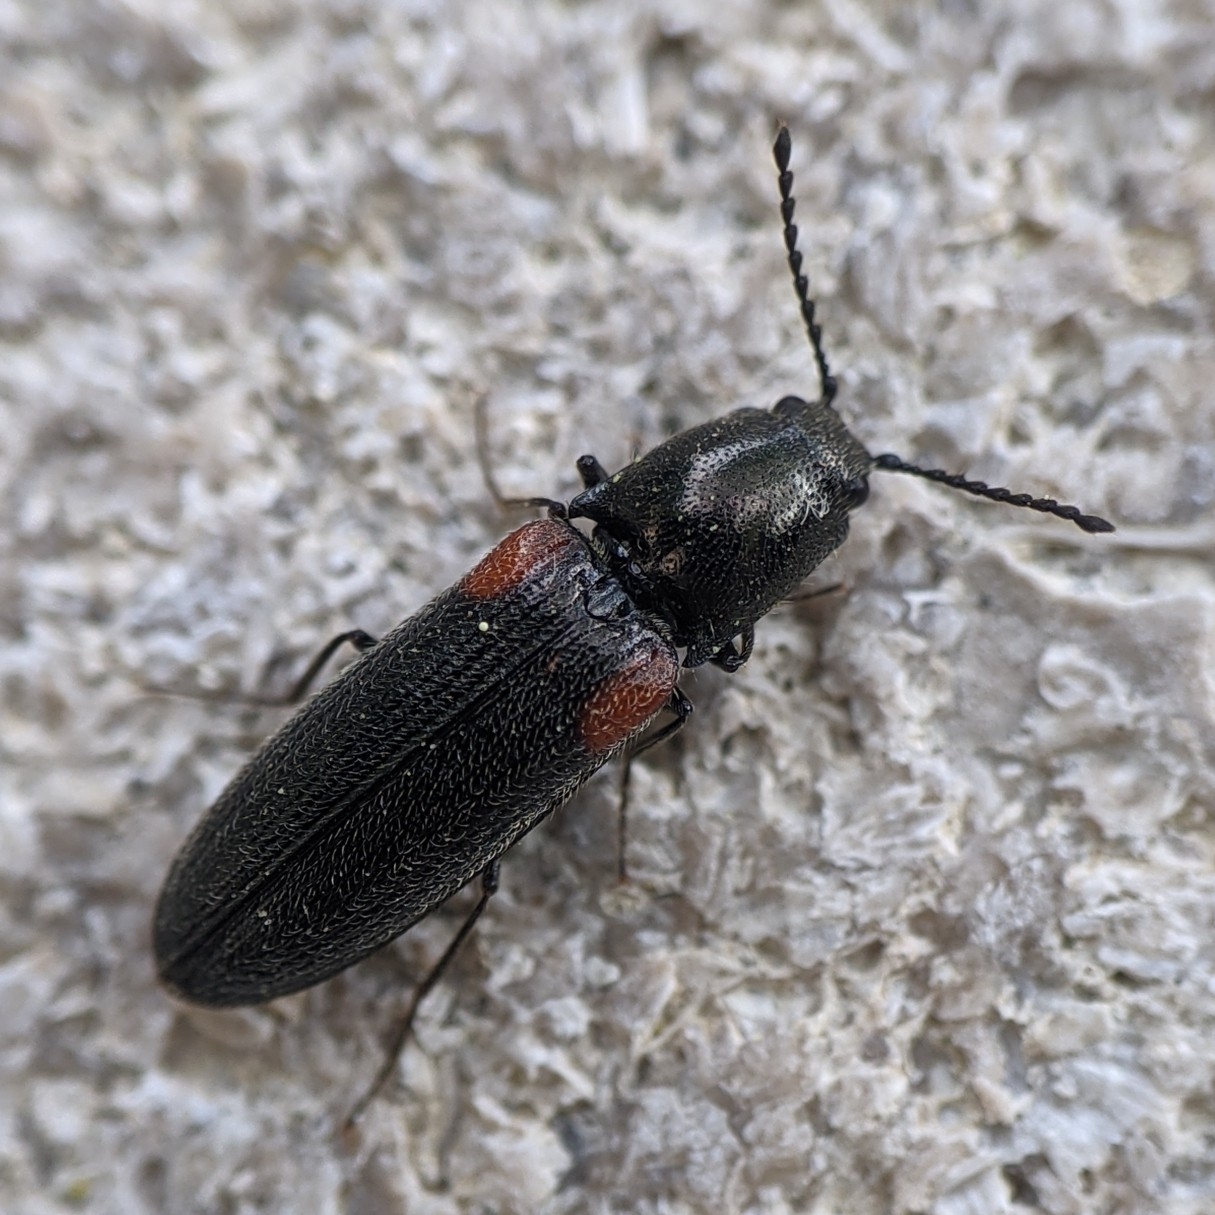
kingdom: Animalia
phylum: Arthropoda
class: Insecta
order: Coleoptera
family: Elateridae
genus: Gambrinus
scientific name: Gambrinus
